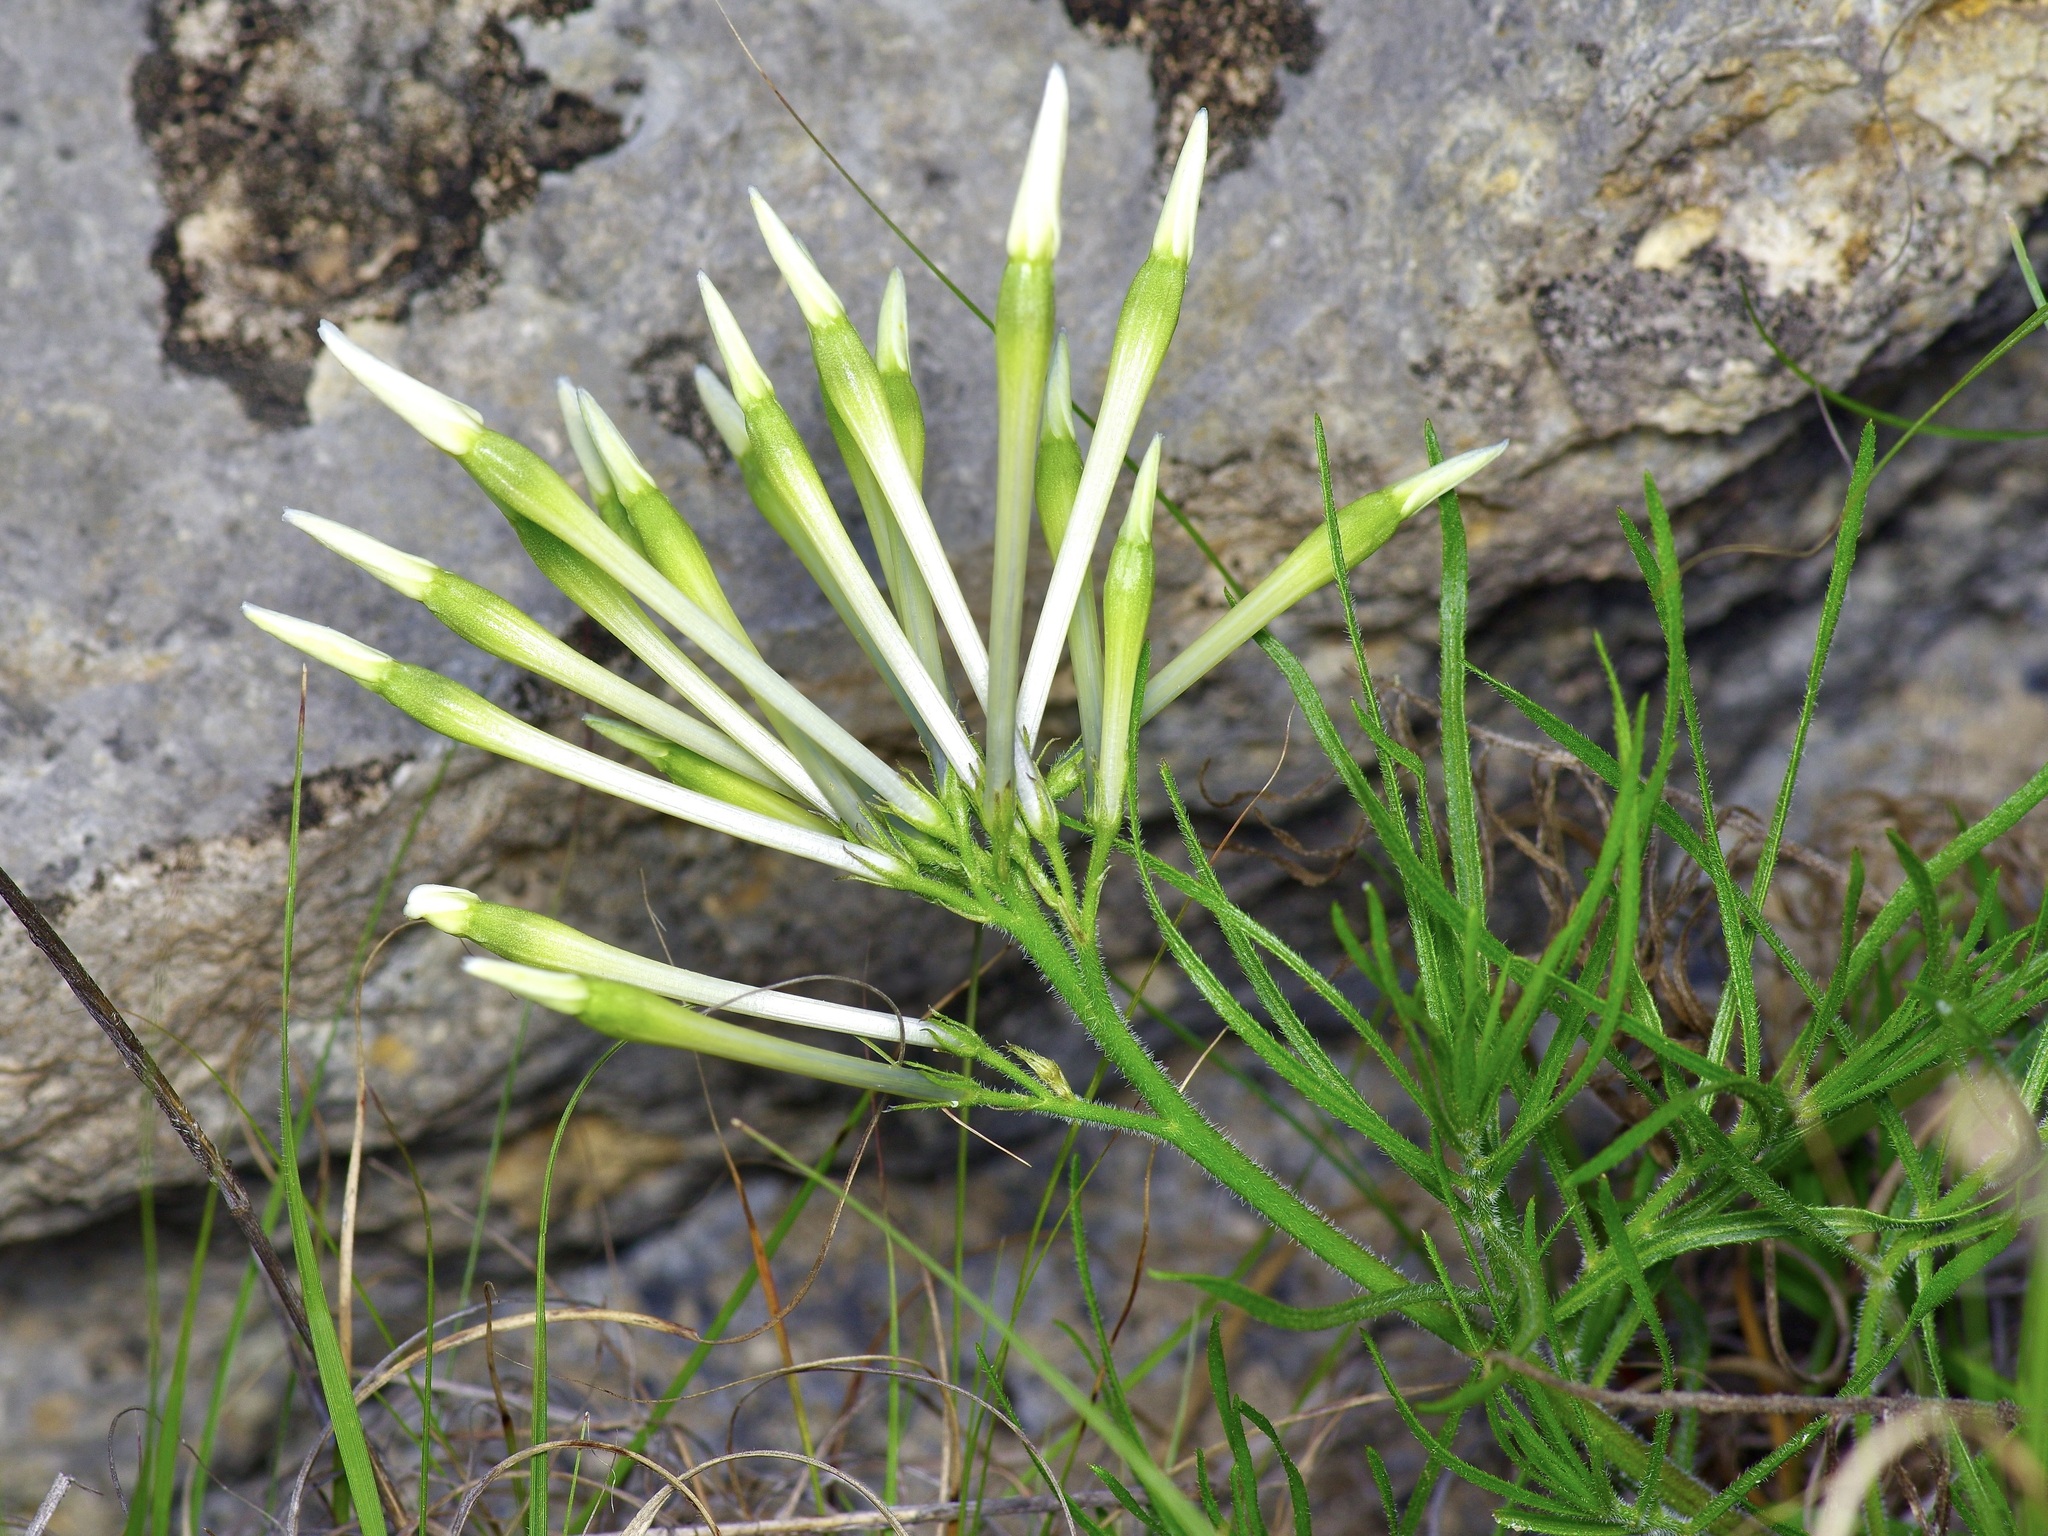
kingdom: Plantae
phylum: Tracheophyta
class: Magnoliopsida
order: Gentianales
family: Apocynaceae
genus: Amsonia
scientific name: Amsonia longiflora
